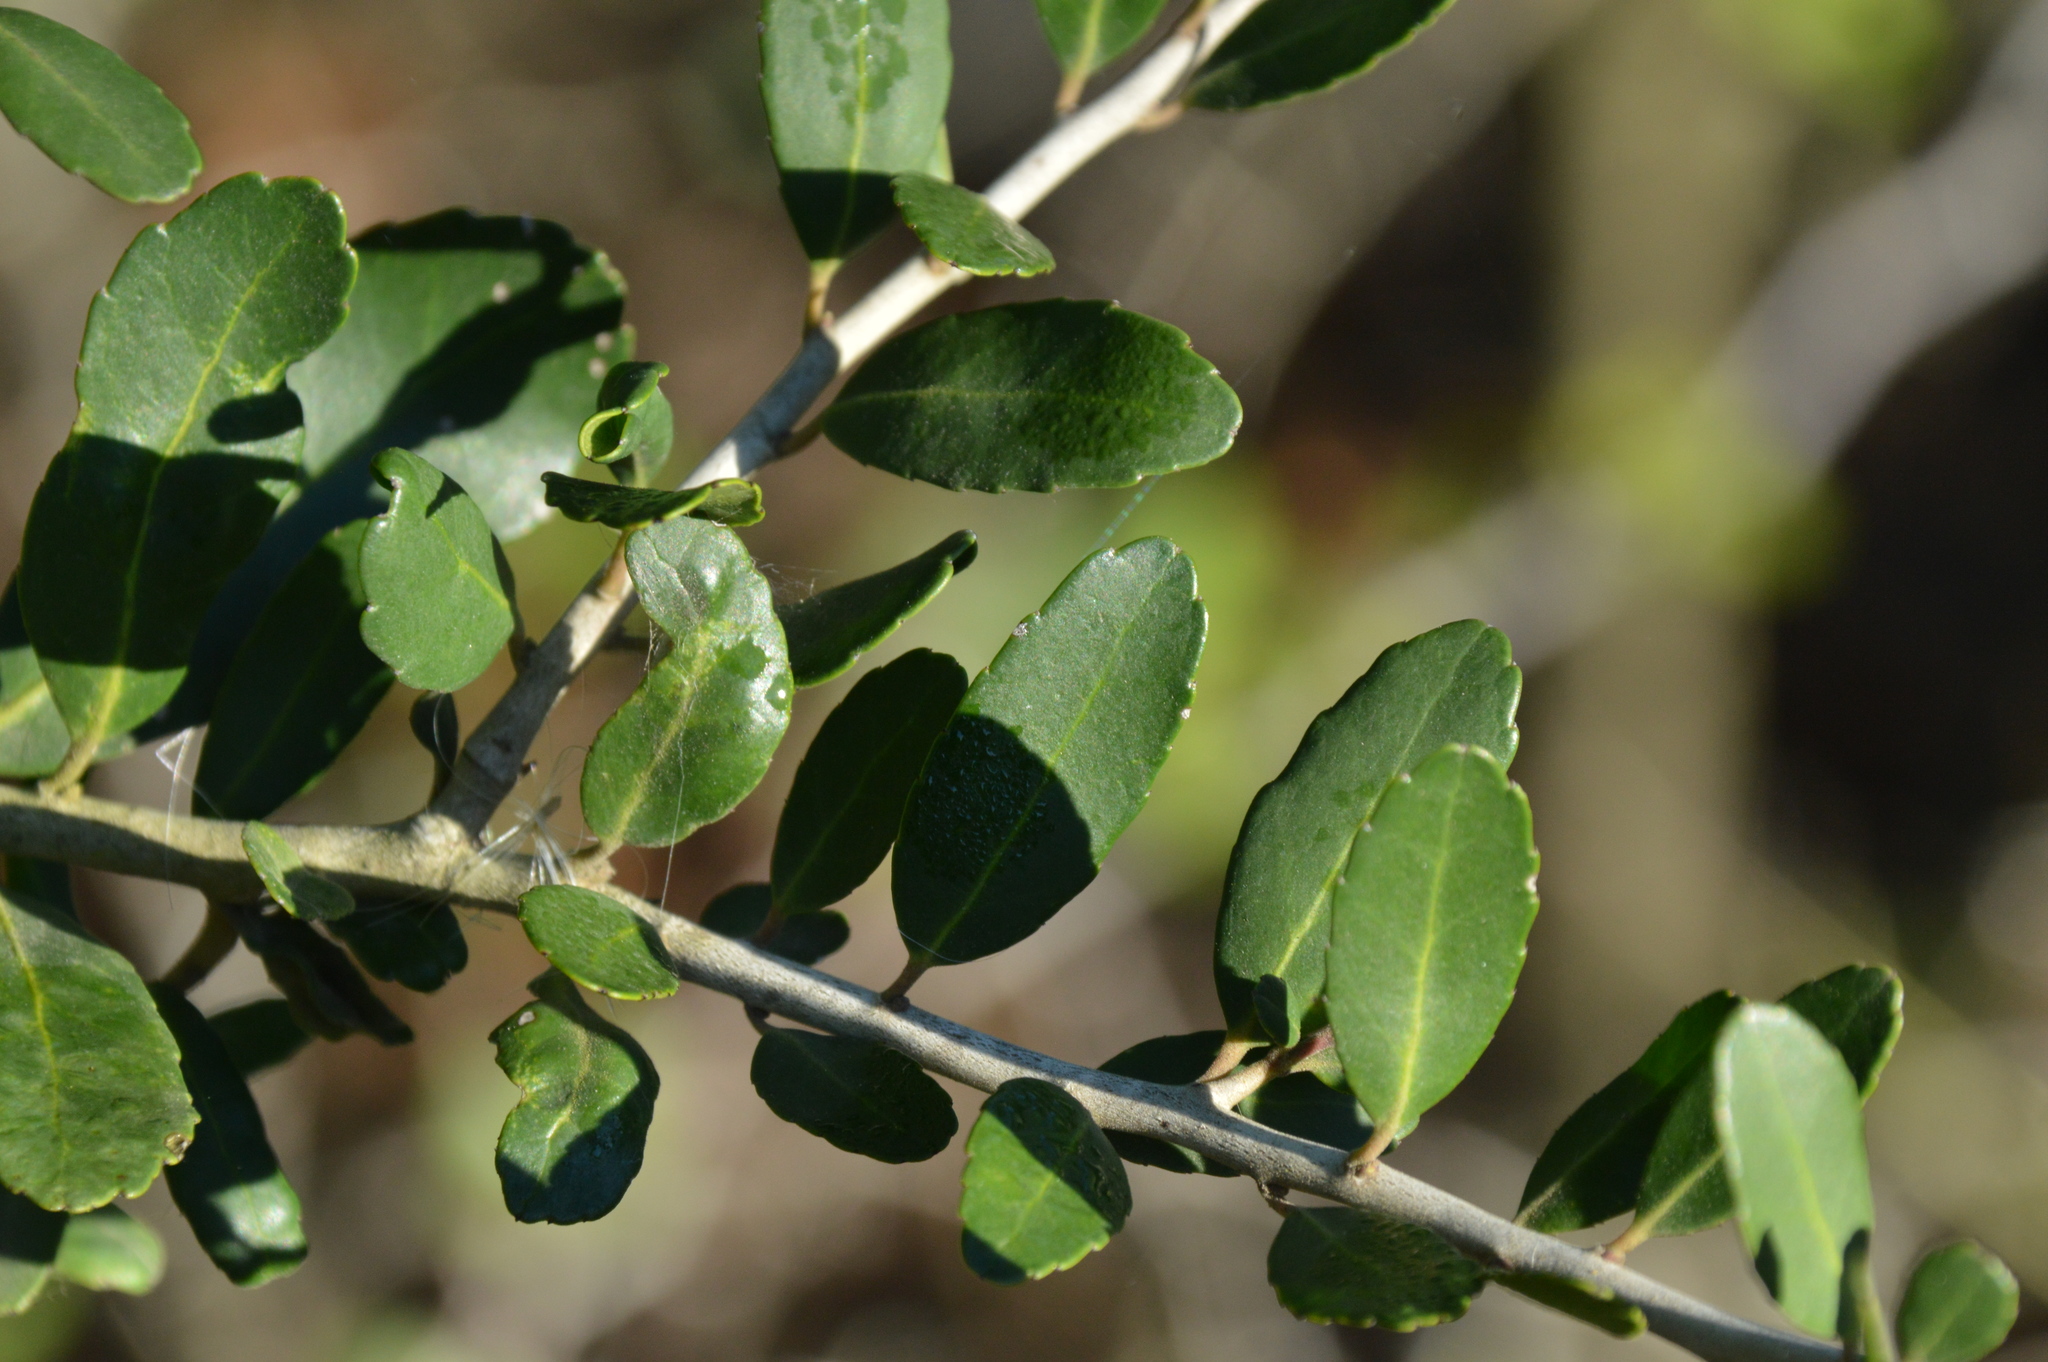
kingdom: Plantae
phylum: Tracheophyta
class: Magnoliopsida
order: Aquifoliales
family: Aquifoliaceae
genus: Ilex
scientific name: Ilex vomitoria
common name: Yaupon holly
